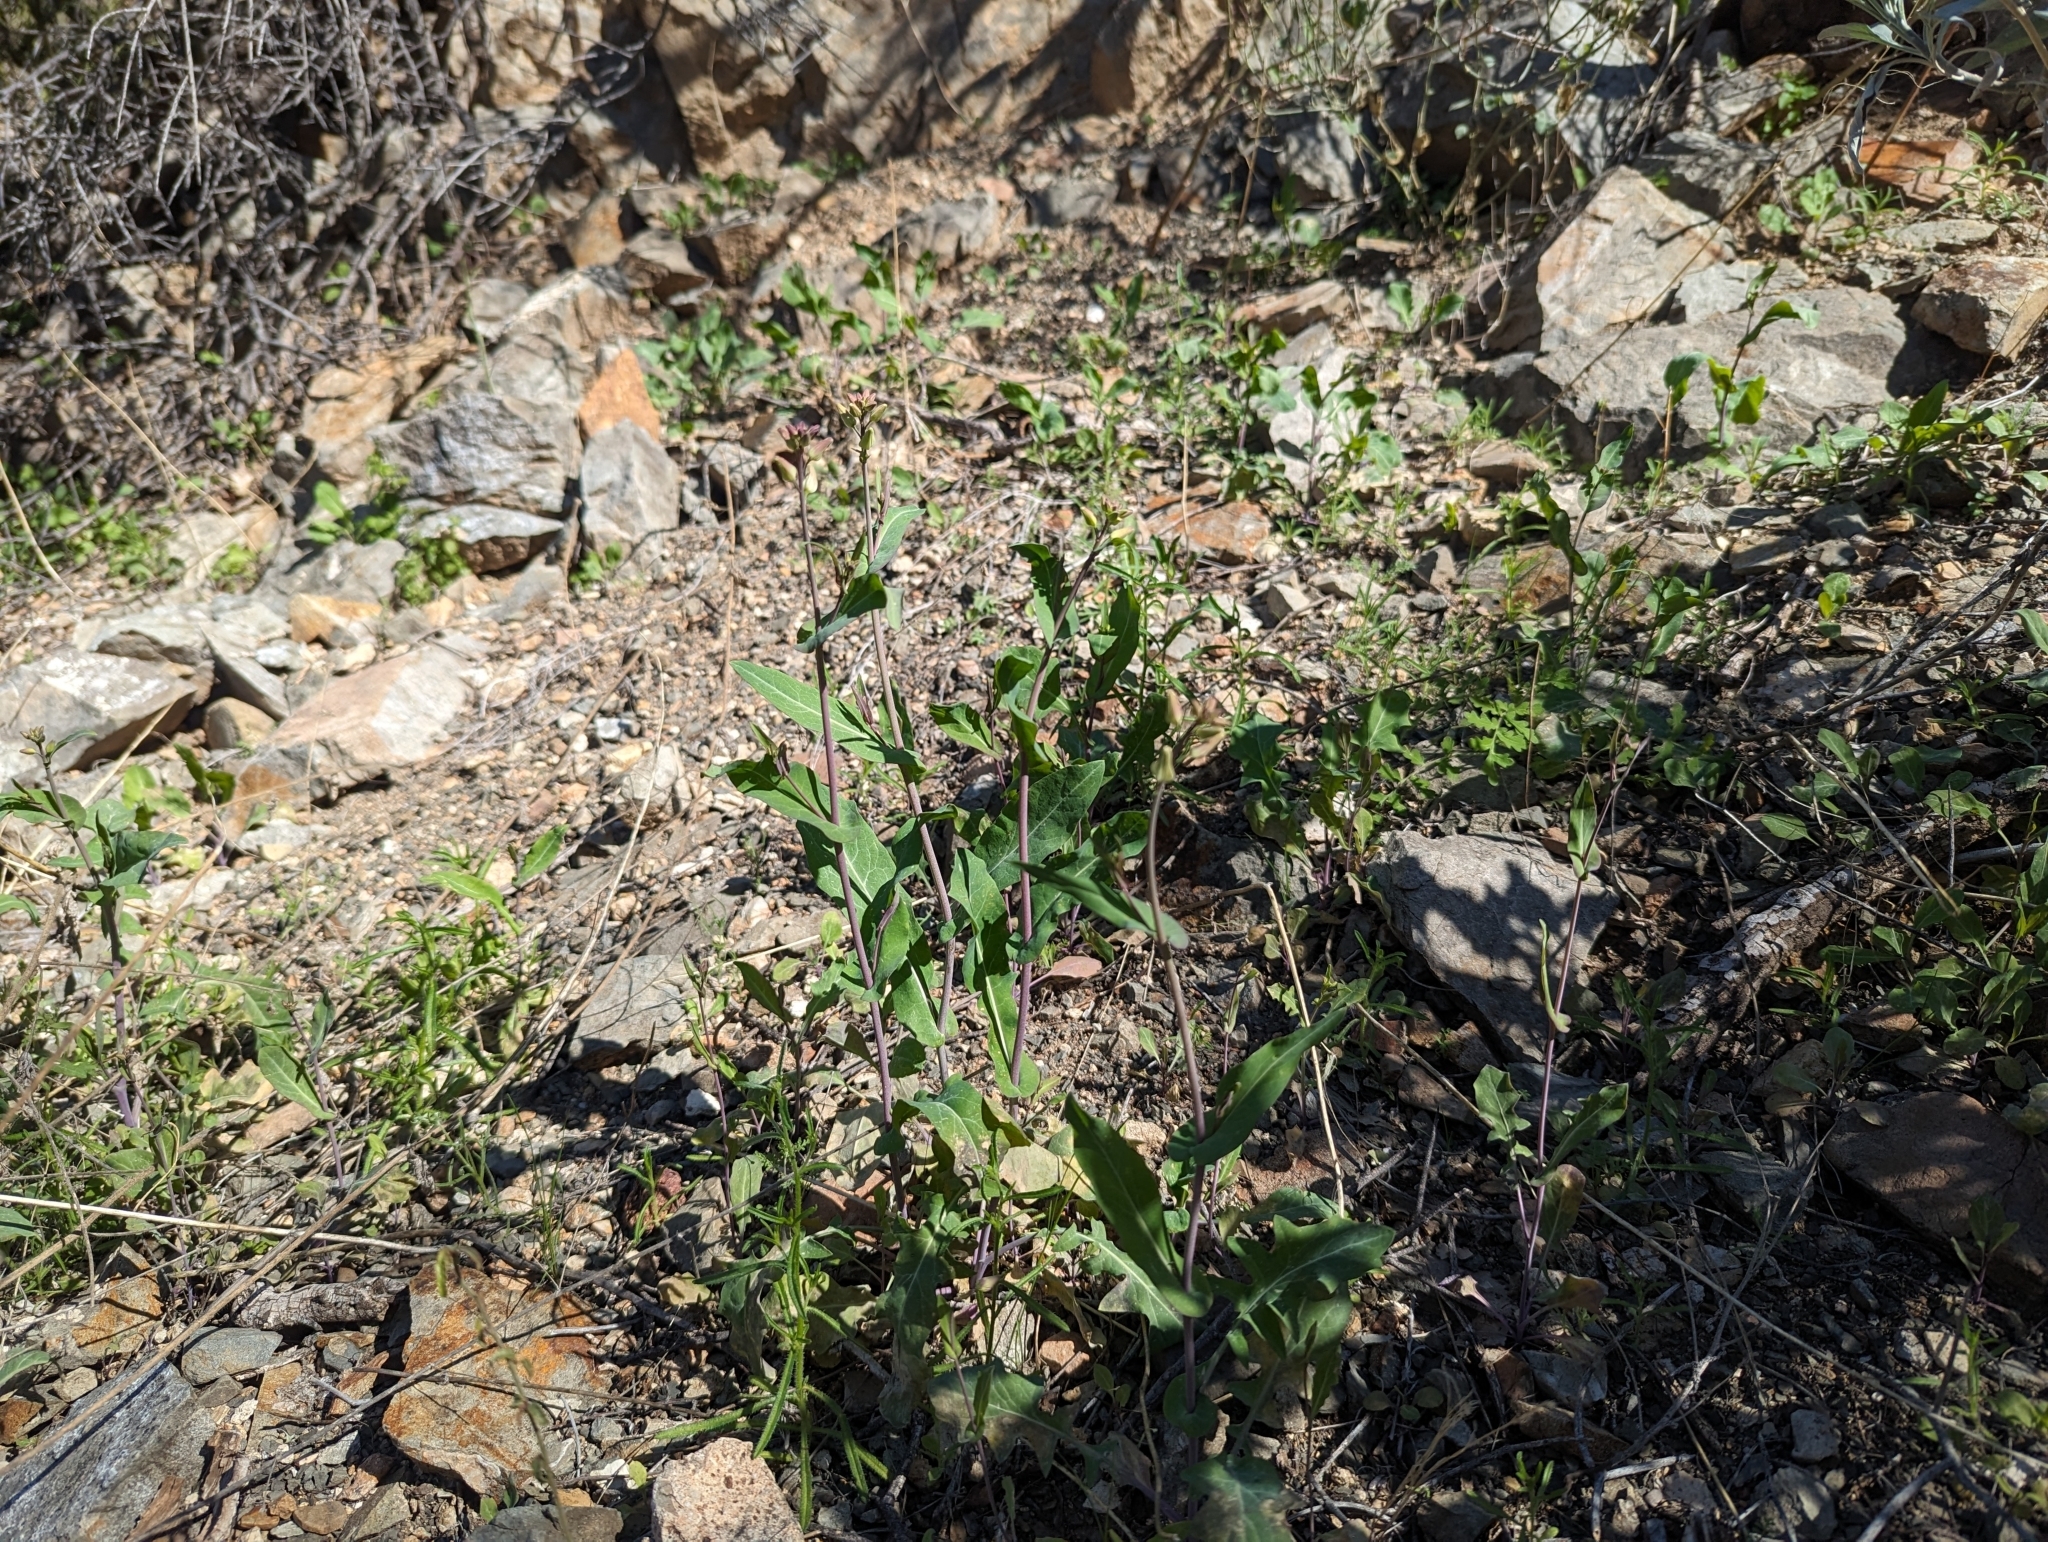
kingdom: Plantae
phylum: Tracheophyta
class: Magnoliopsida
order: Brassicales
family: Brassicaceae
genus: Streptanthus
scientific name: Streptanthus carinatus
